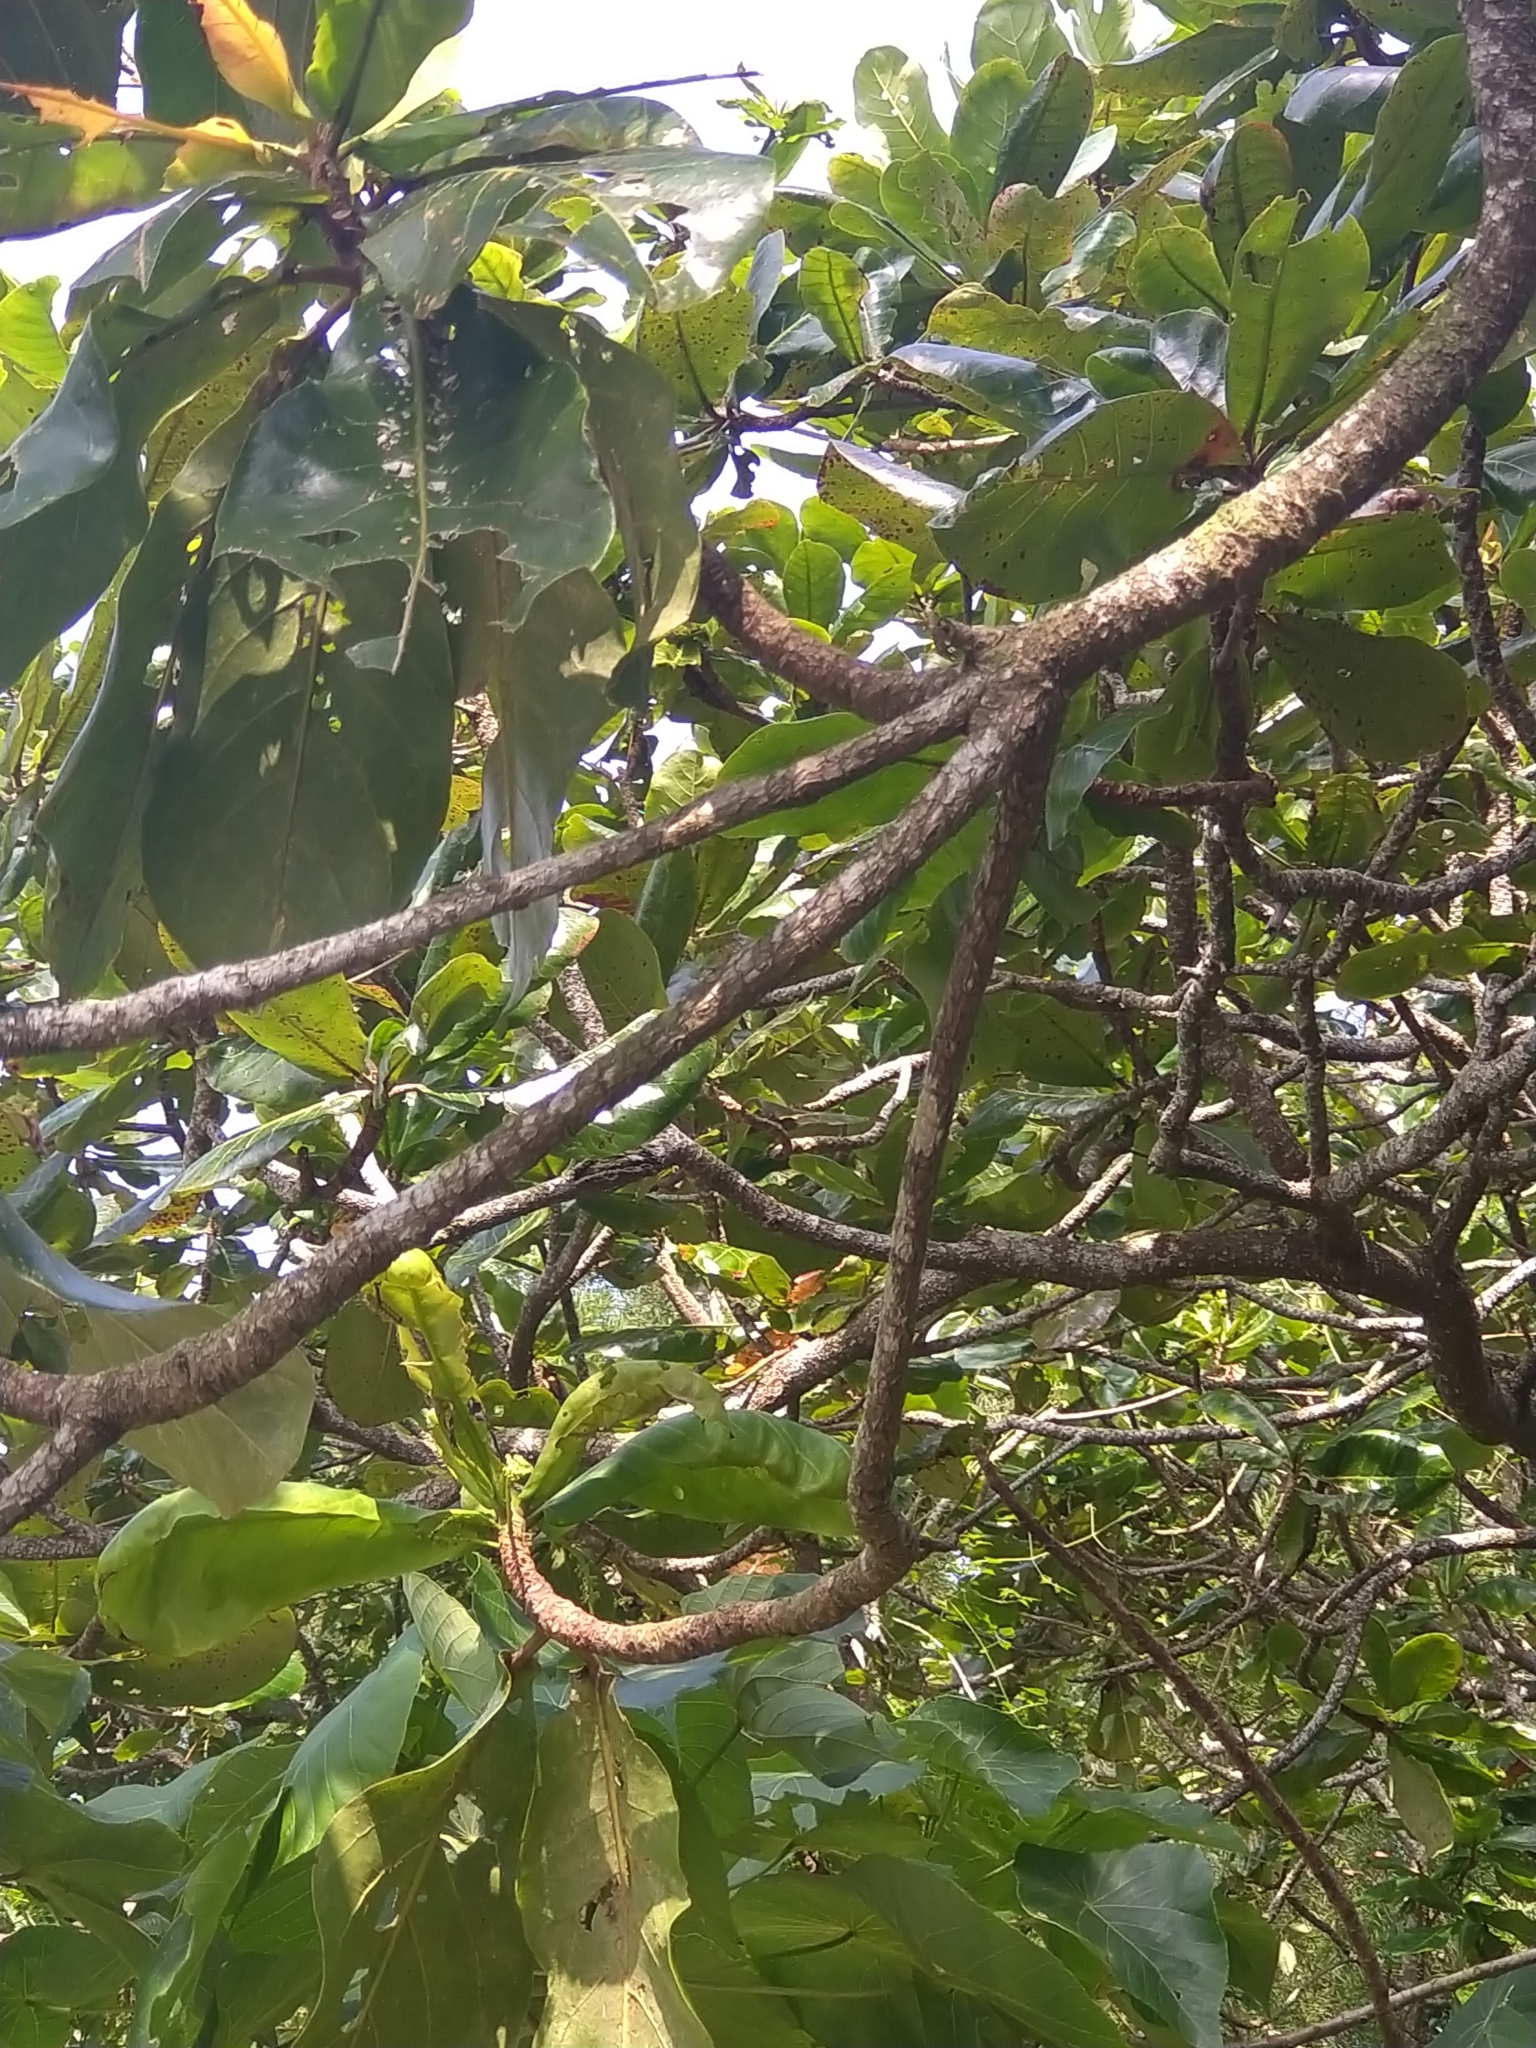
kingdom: Plantae
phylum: Tracheophyta
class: Magnoliopsida
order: Myrtales
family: Combretaceae
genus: Terminalia
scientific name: Terminalia catappa
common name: Tropical almond
